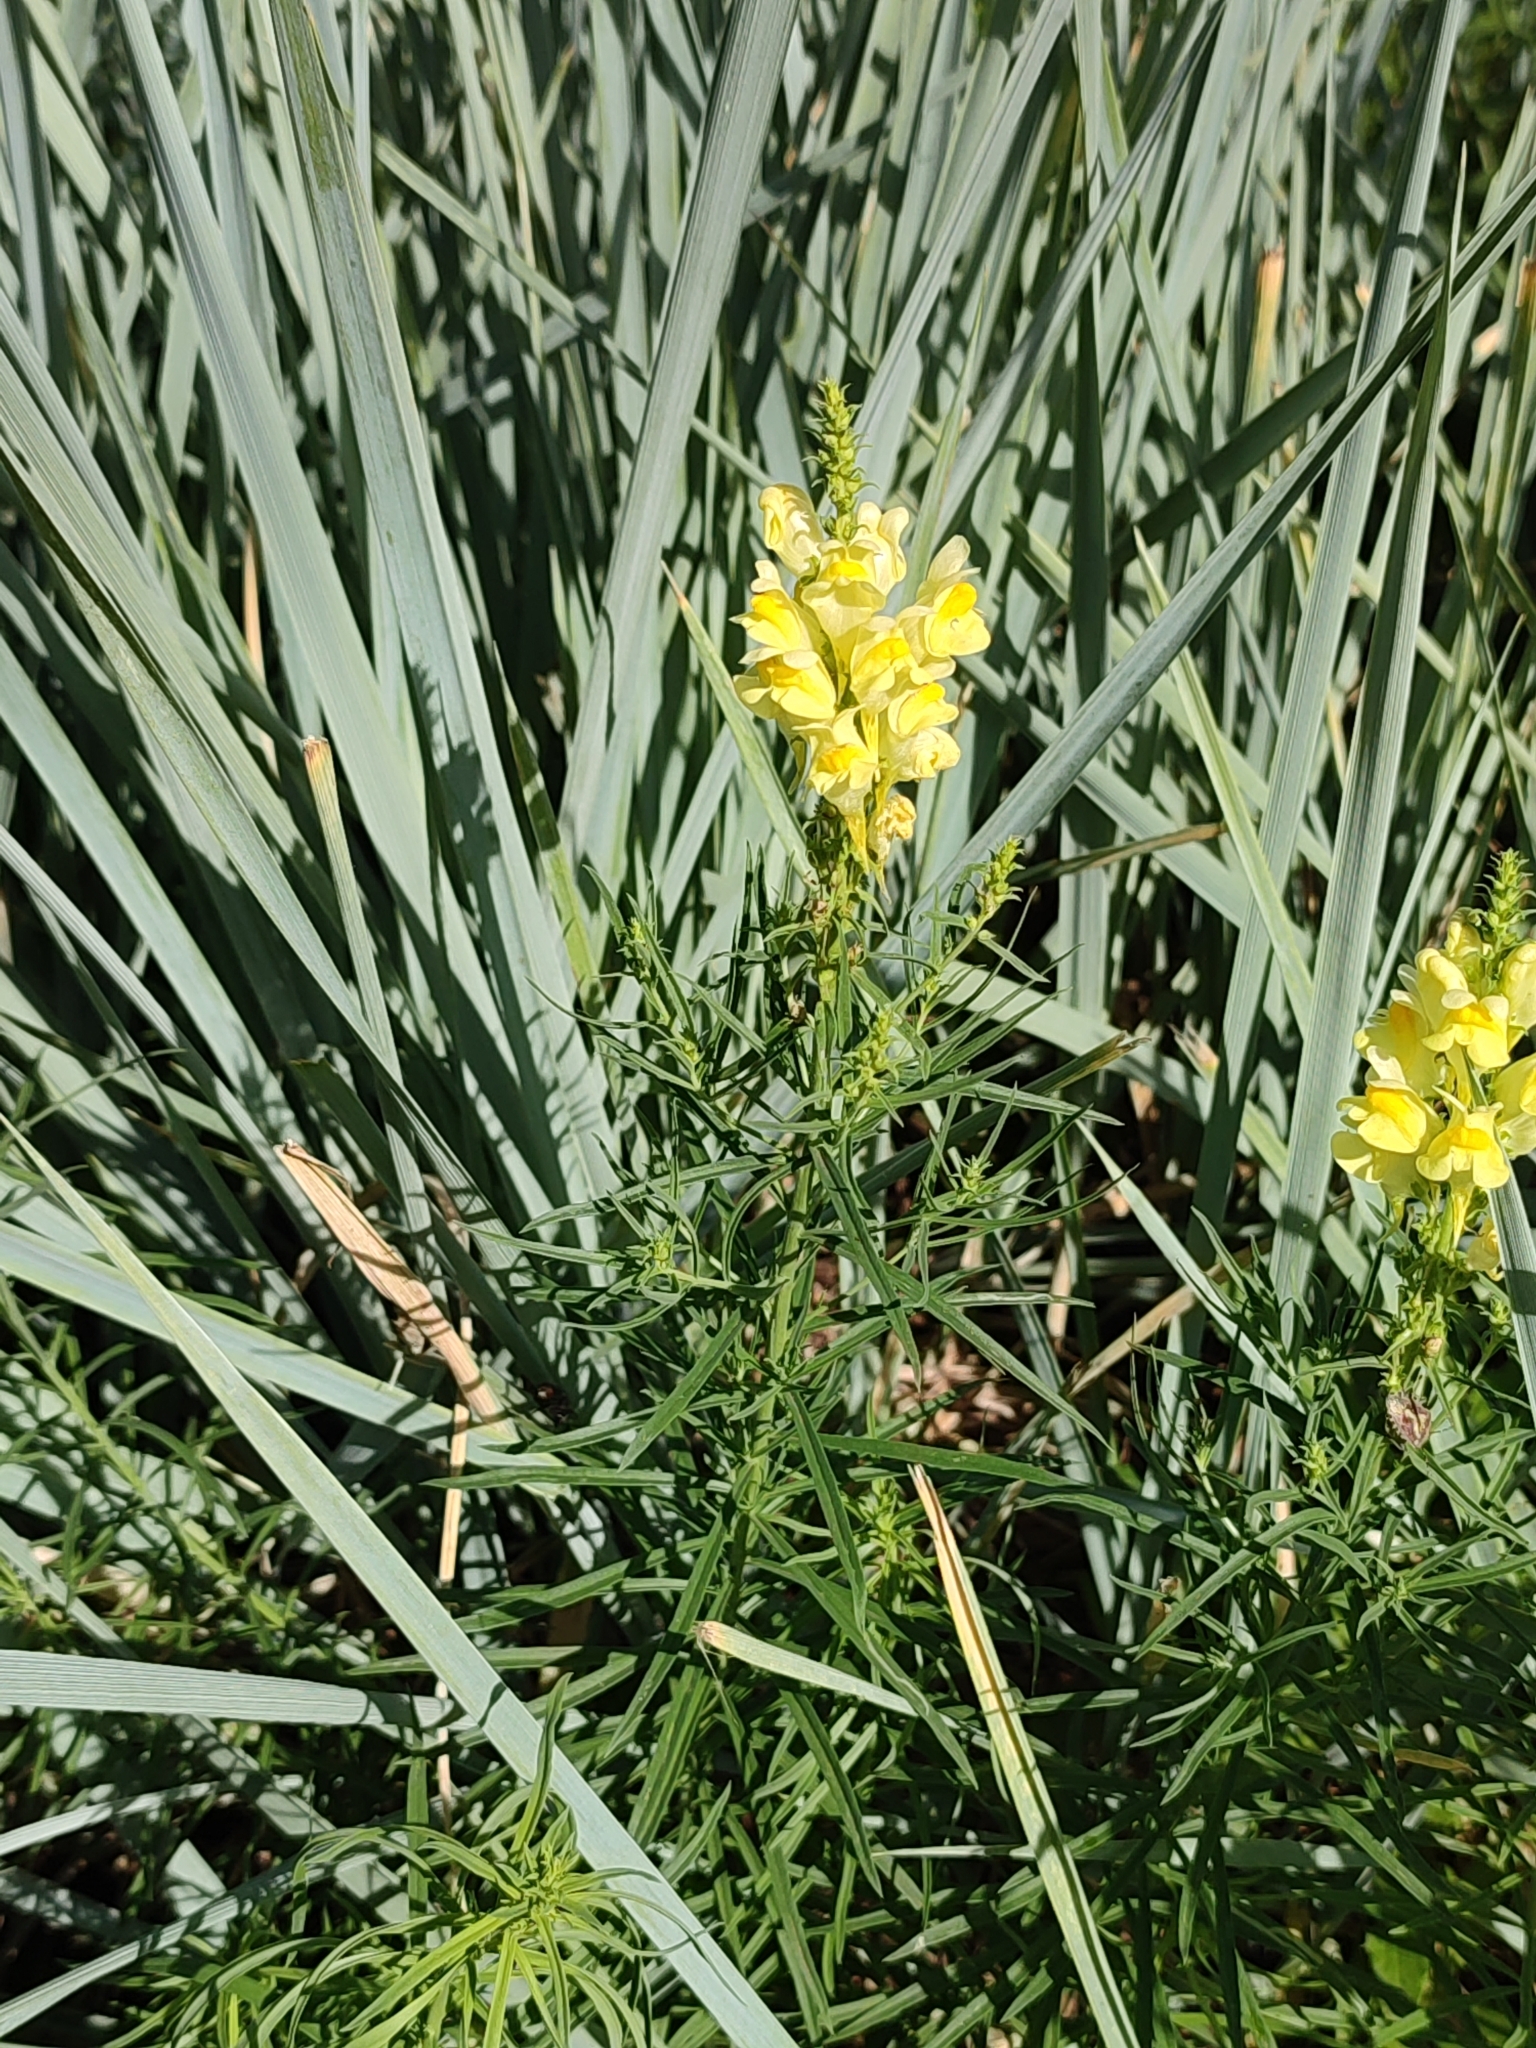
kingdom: Plantae
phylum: Tracheophyta
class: Magnoliopsida
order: Lamiales
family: Plantaginaceae
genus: Linaria
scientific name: Linaria vulgaris
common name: Butter and eggs
